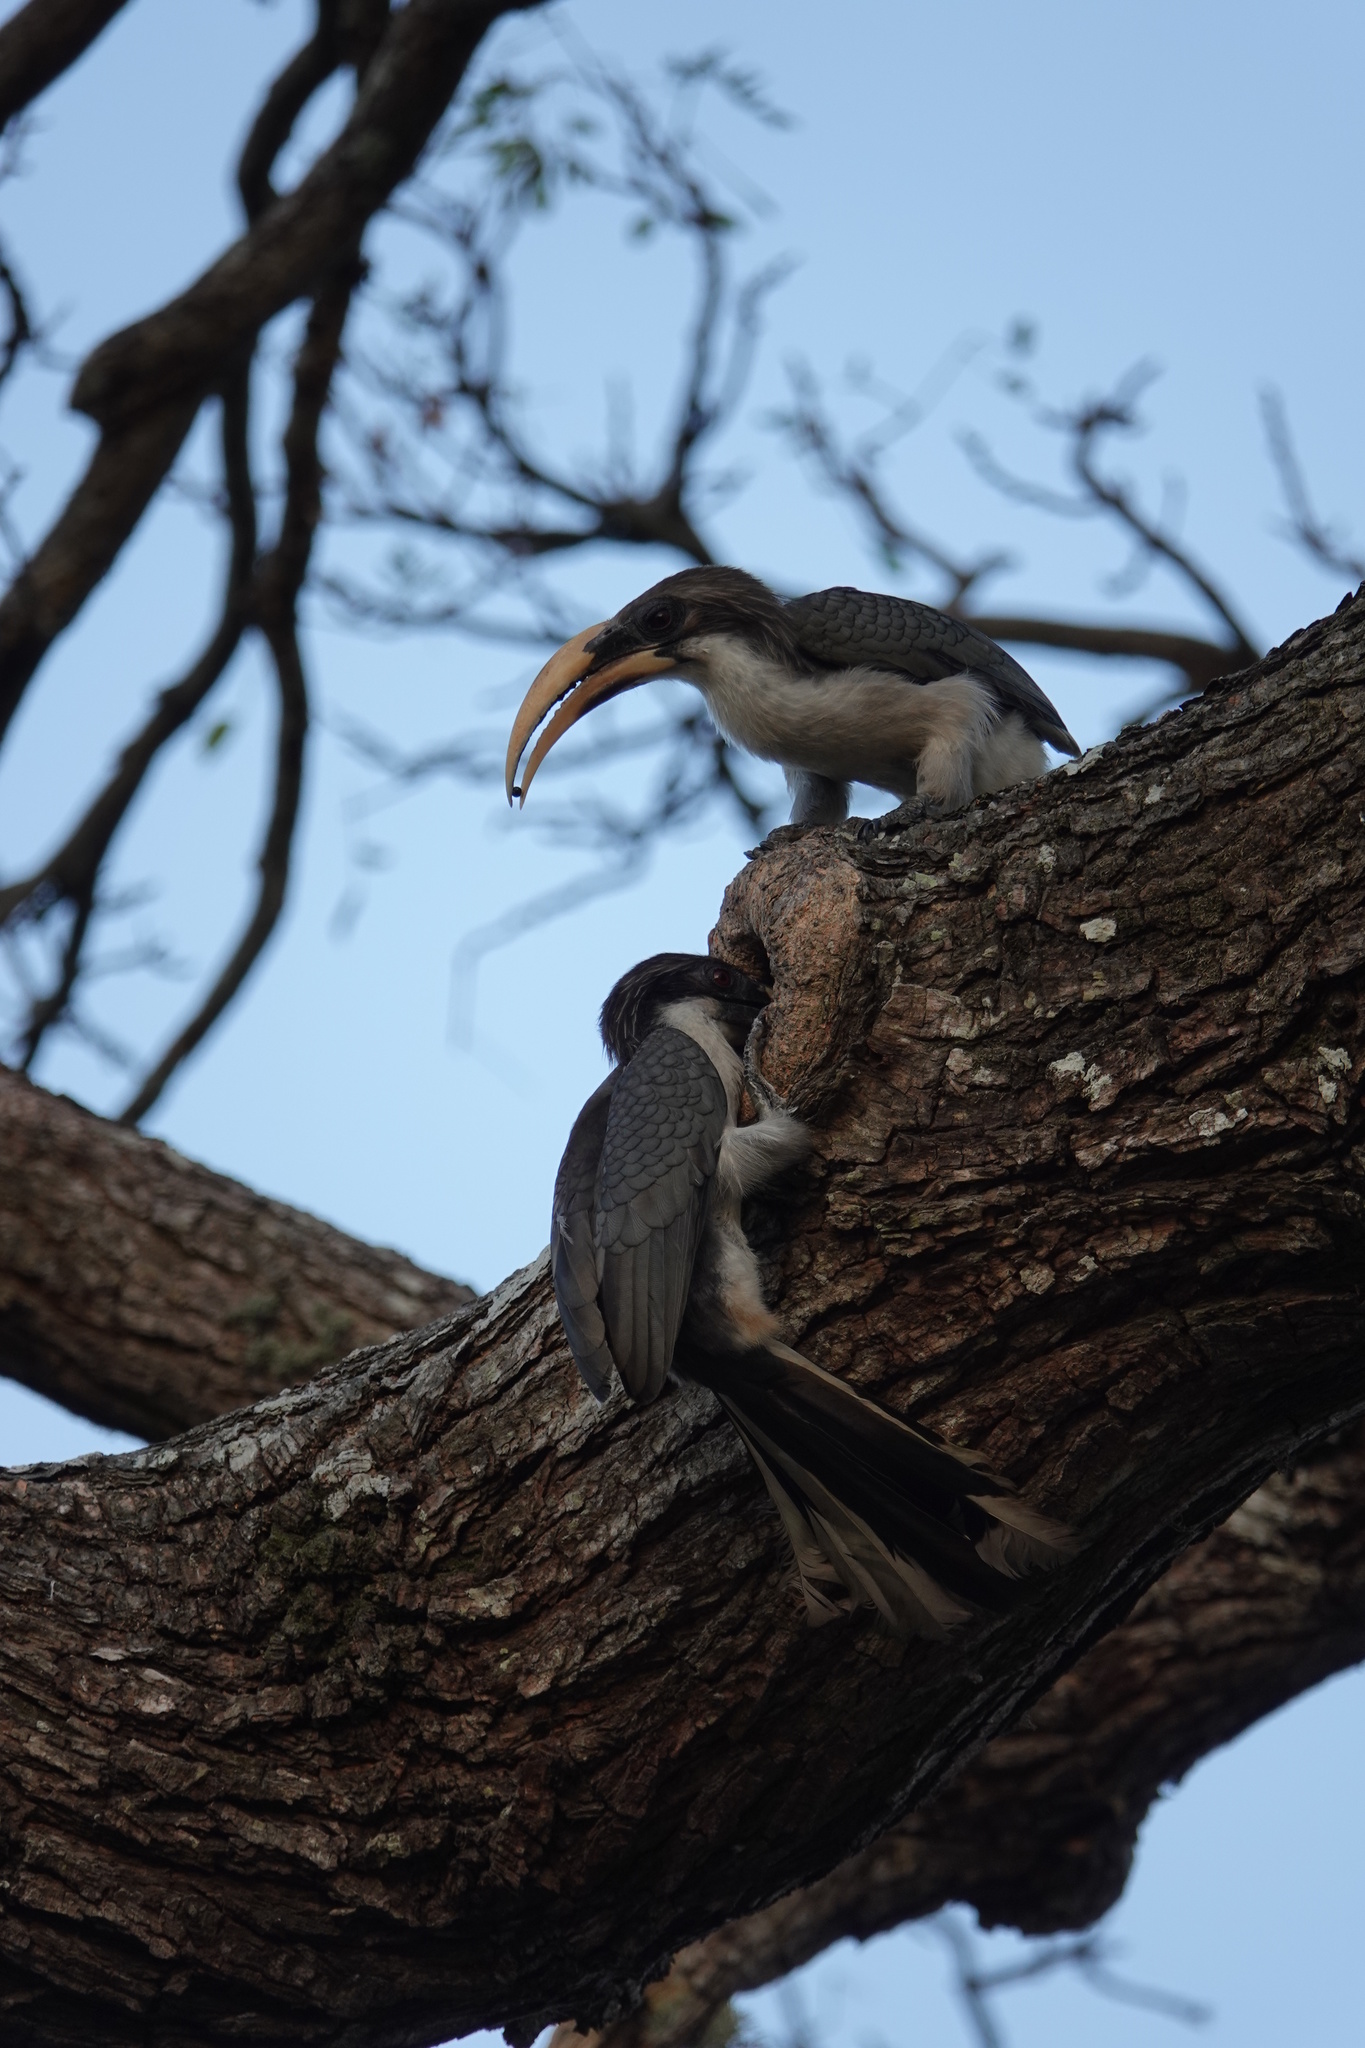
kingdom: Animalia
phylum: Chordata
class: Aves
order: Bucerotiformes
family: Bucerotidae
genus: Ocyceros
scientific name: Ocyceros gingalensis
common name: Sri lanka grey hornbill
